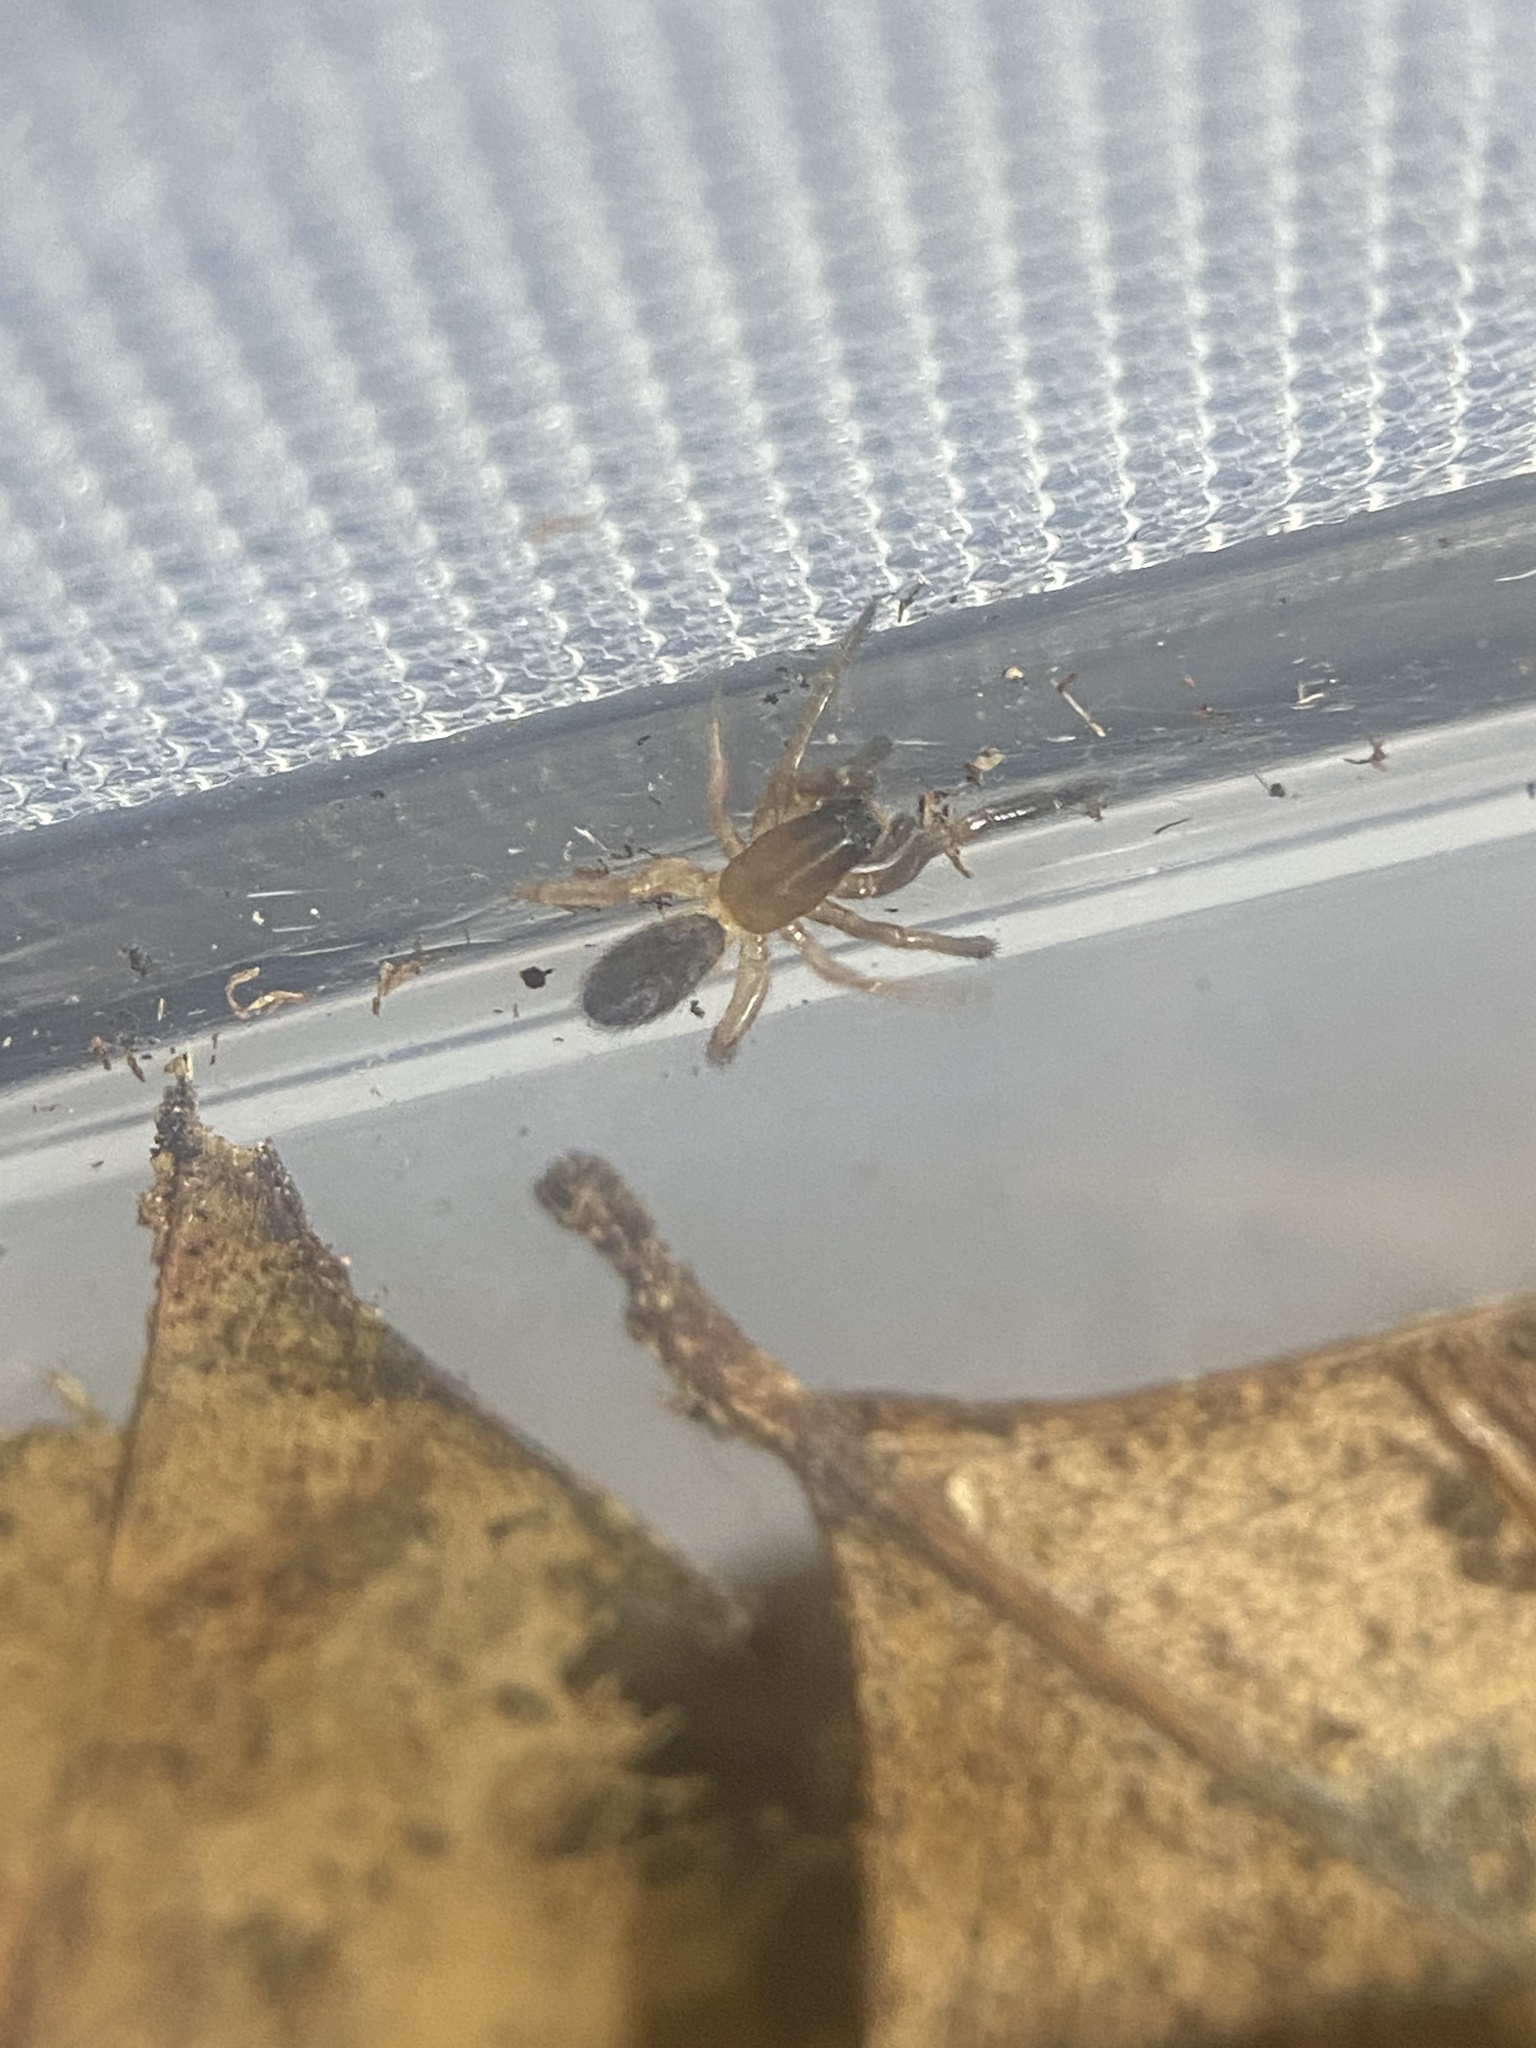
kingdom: Animalia
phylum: Arthropoda
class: Arachnida
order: Araneae
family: Segestriidae
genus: Ariadna
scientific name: Ariadna bicolor
